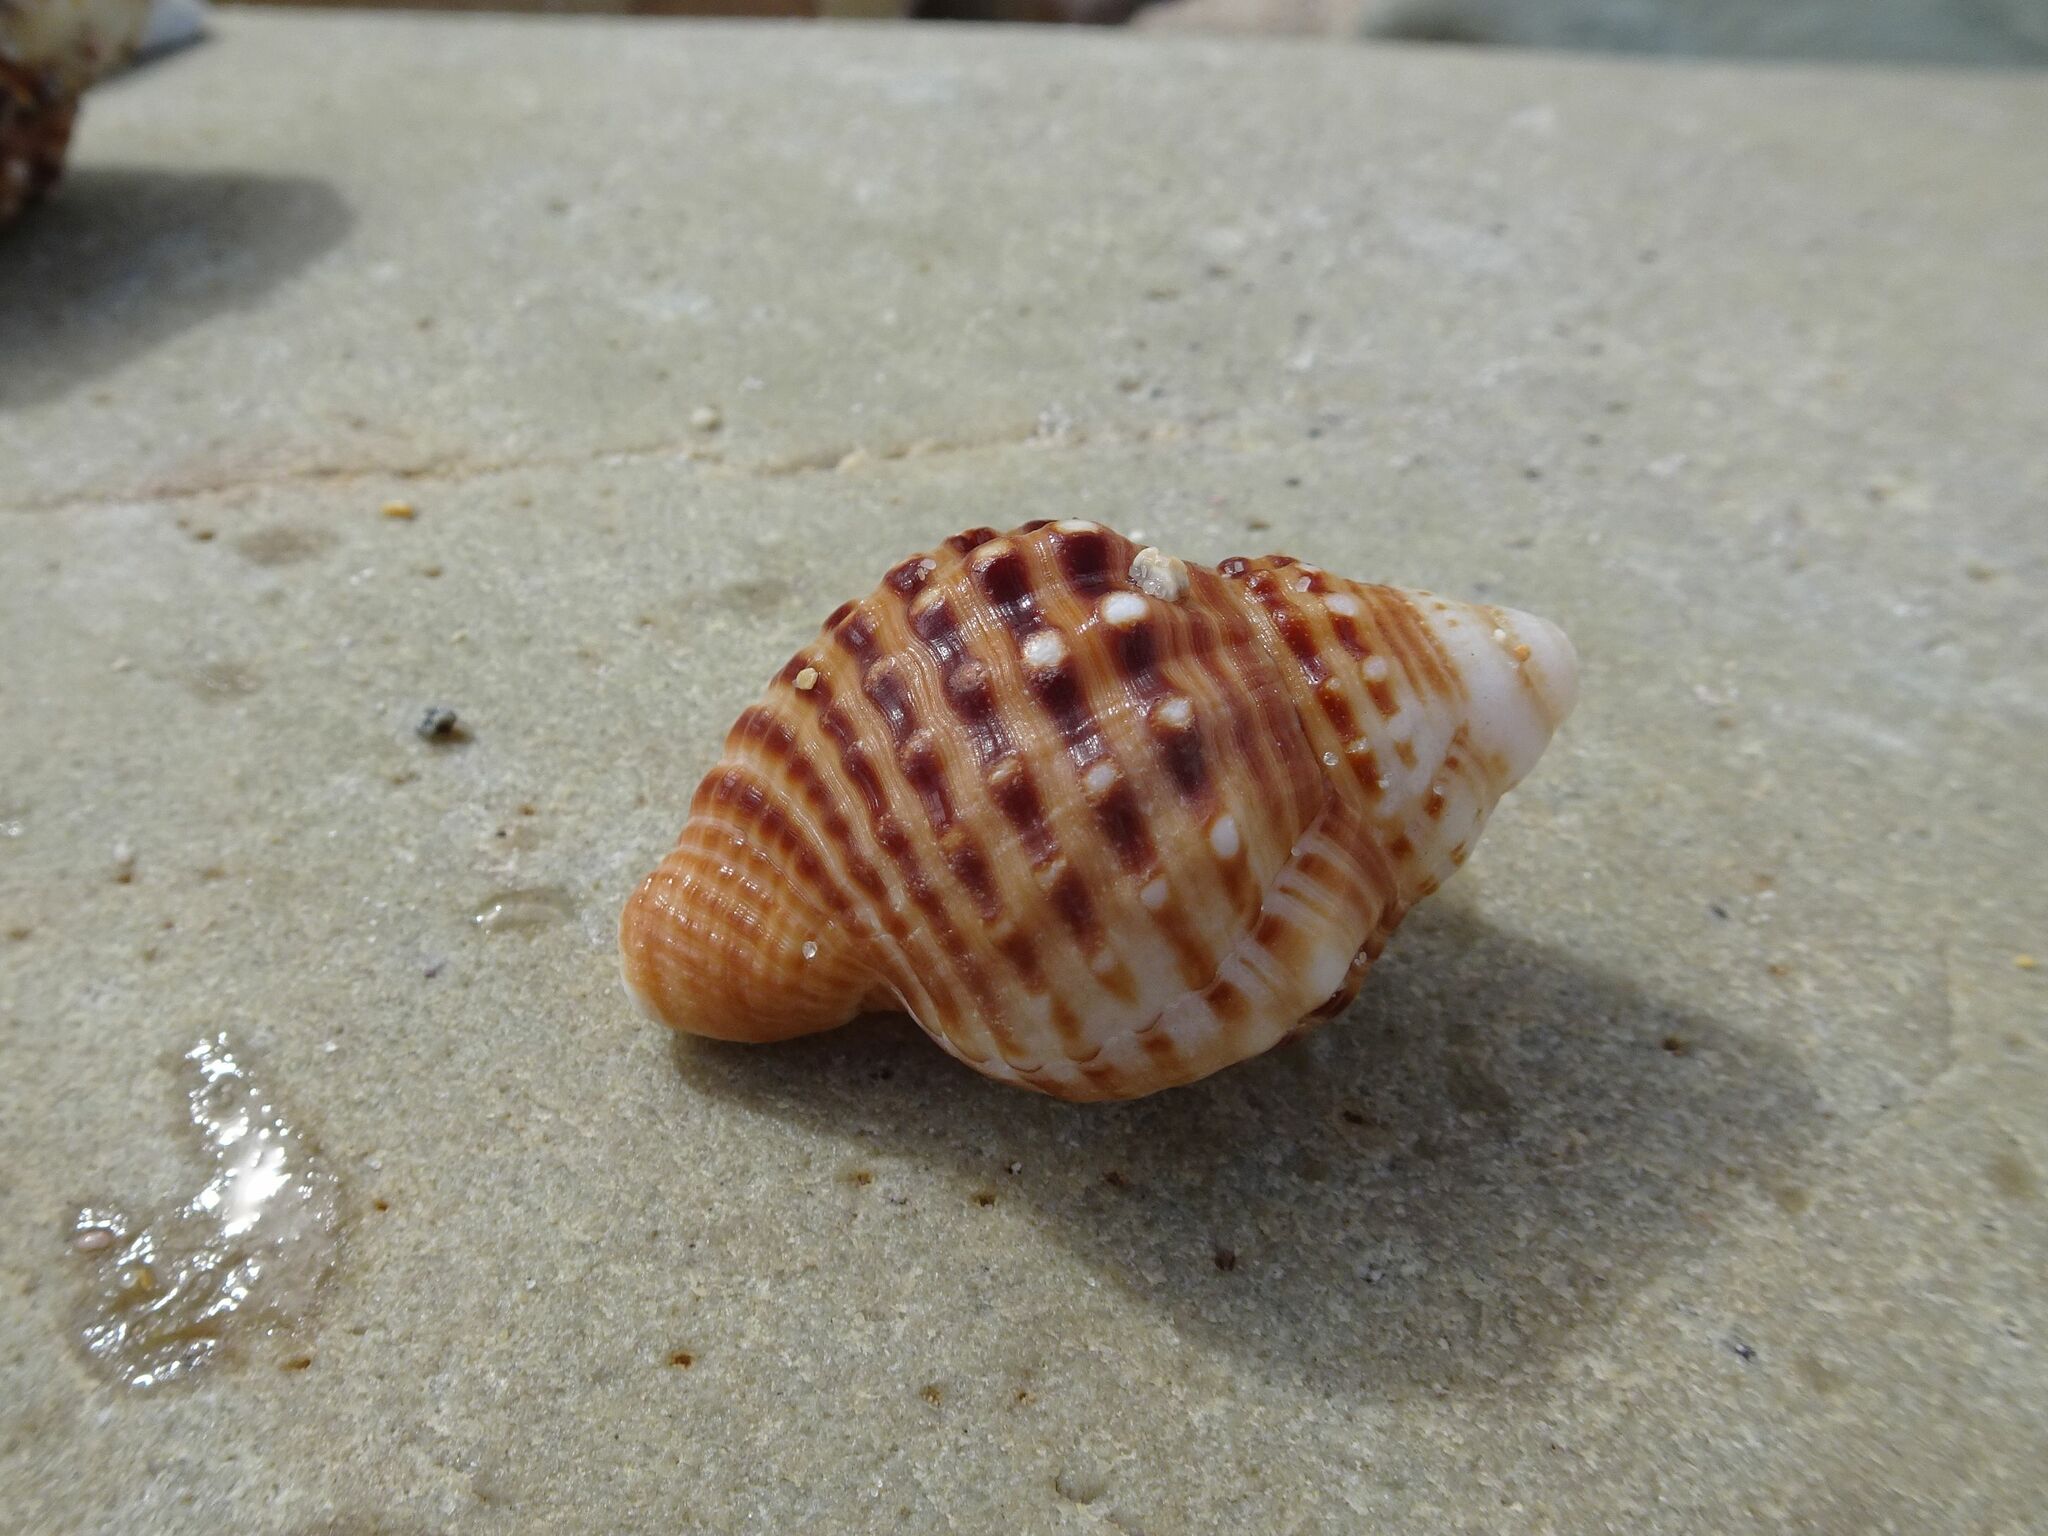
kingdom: Animalia
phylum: Mollusca
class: Gastropoda
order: Littorinimorpha
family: Cymatiidae
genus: Argobuccinum
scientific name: Argobuccinum pustulosum
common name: Pustular triton
